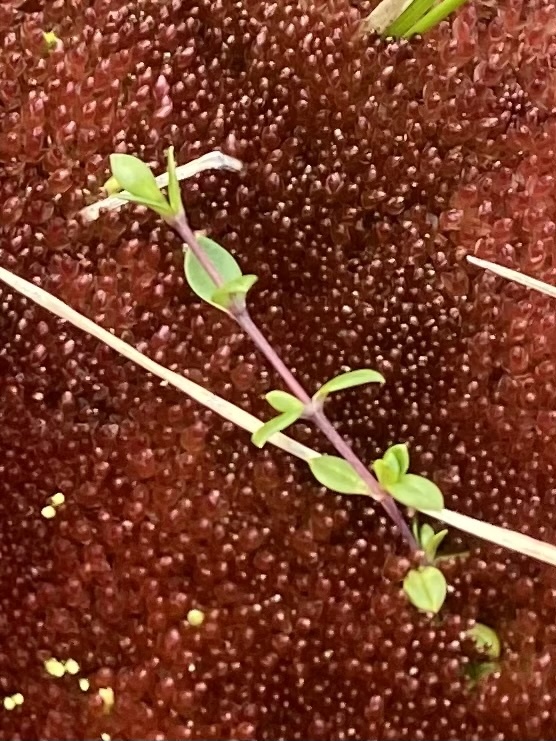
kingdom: Plantae
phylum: Tracheophyta
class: Magnoliopsida
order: Caryophyllales
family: Caryophyllaceae
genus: Cerastium
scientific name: Cerastium regelii
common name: Regel's chickweed
